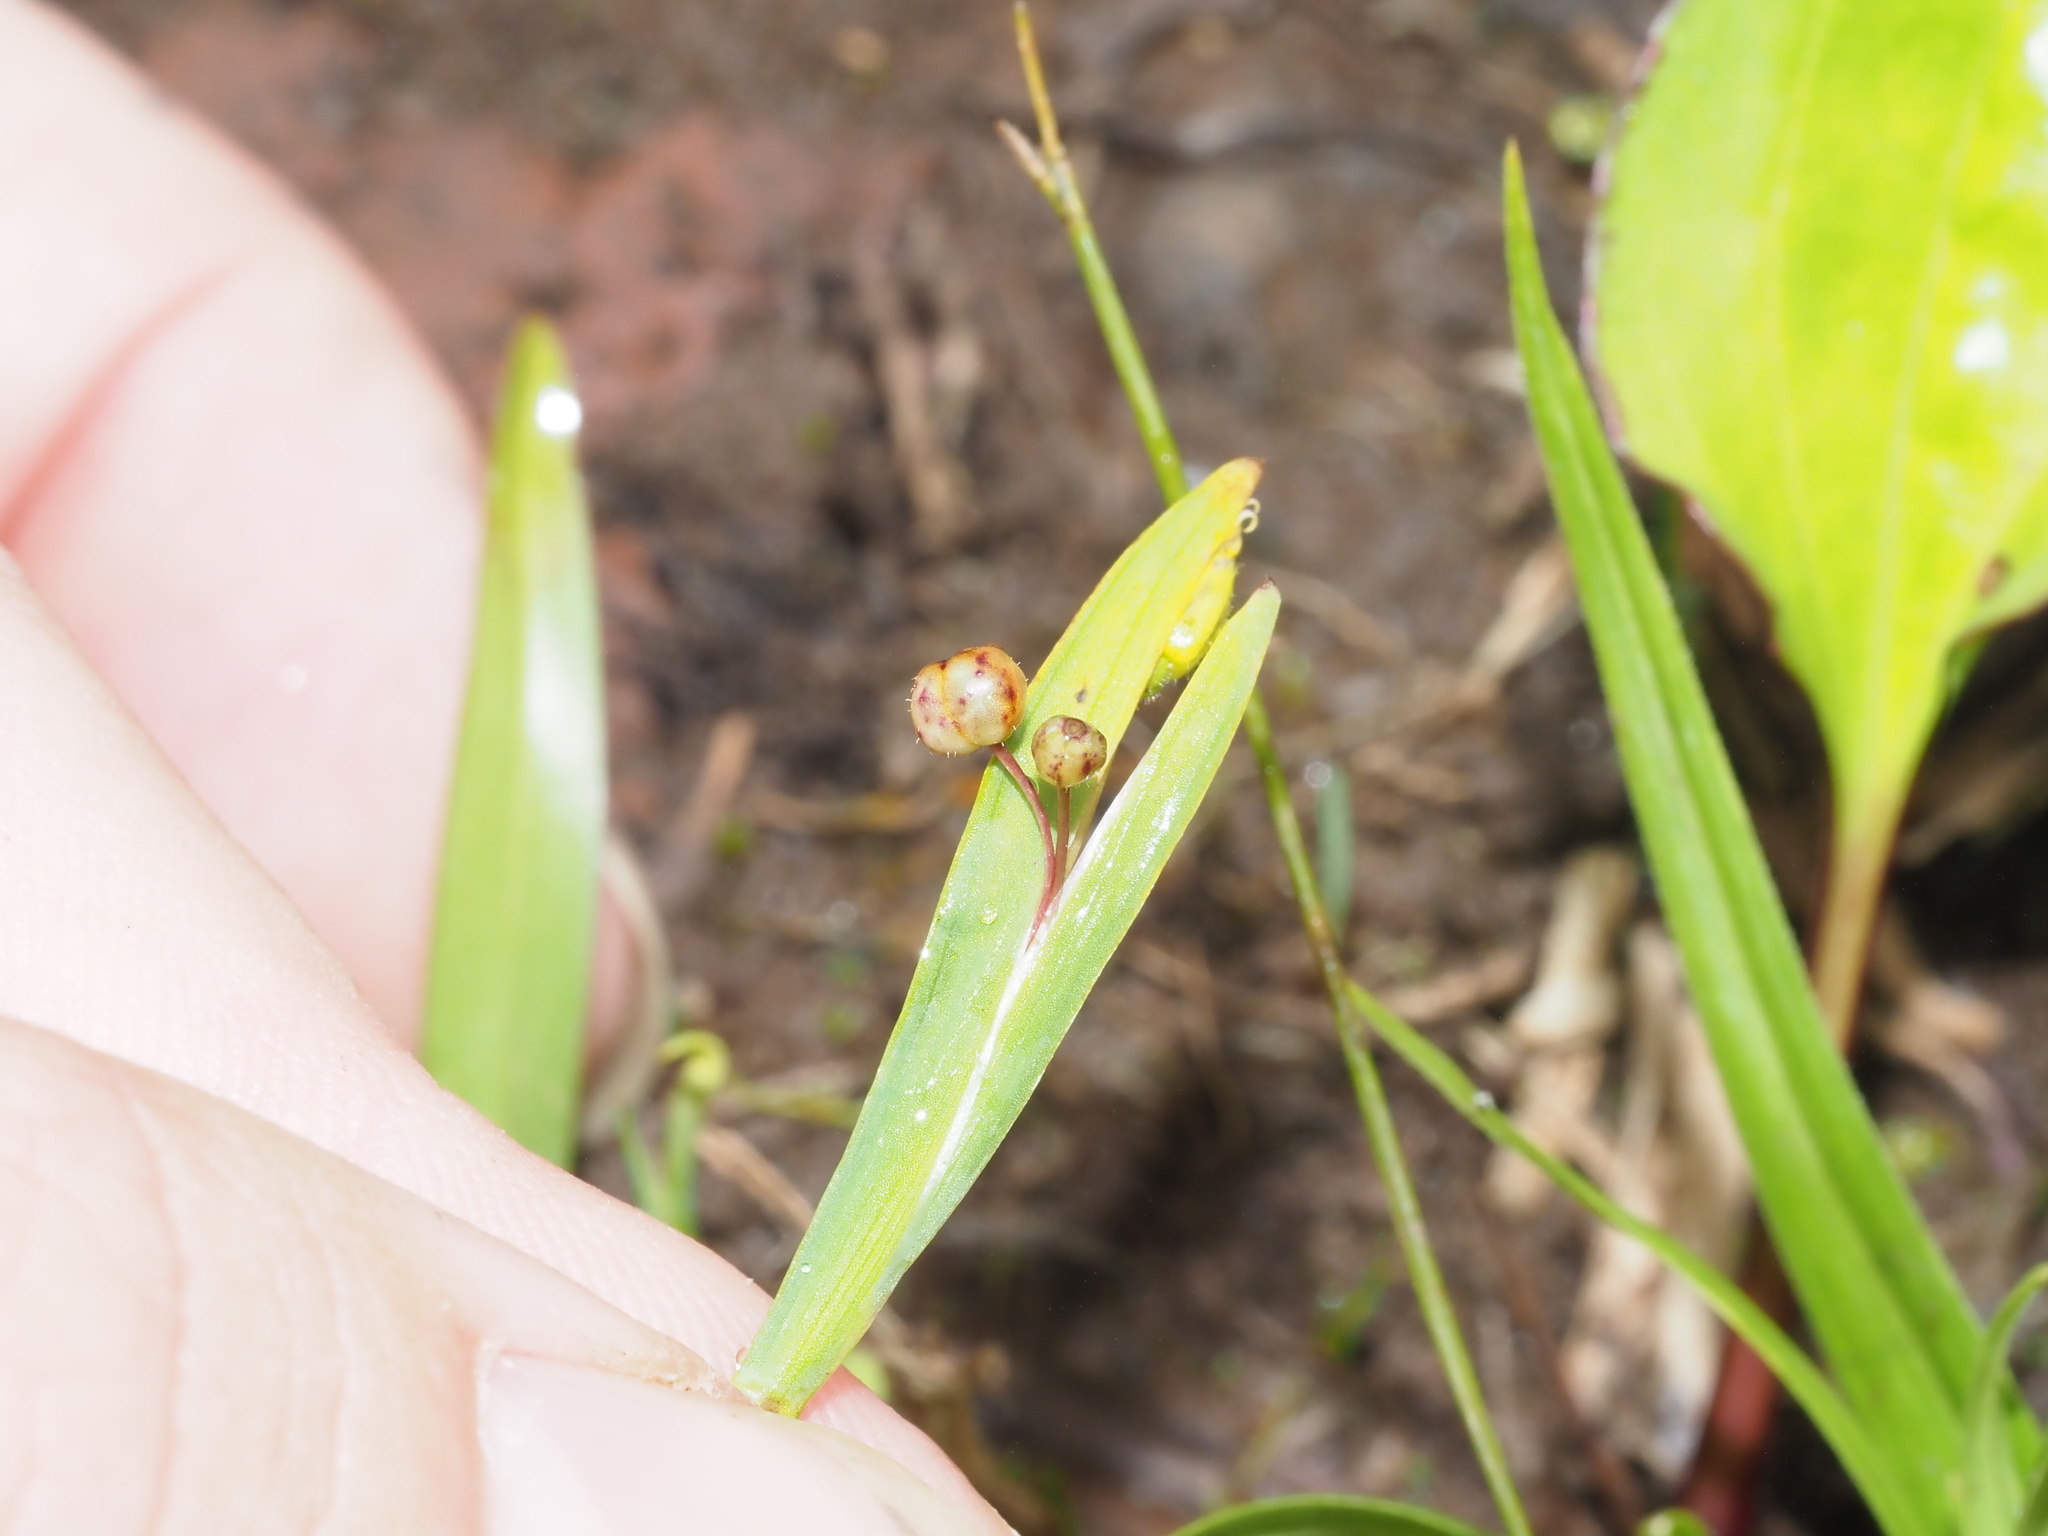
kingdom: Plantae
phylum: Tracheophyta
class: Liliopsida
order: Asparagales
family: Iridaceae
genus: Sisyrinchium
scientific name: Sisyrinchium micranthum
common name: Bermuda pigroot
